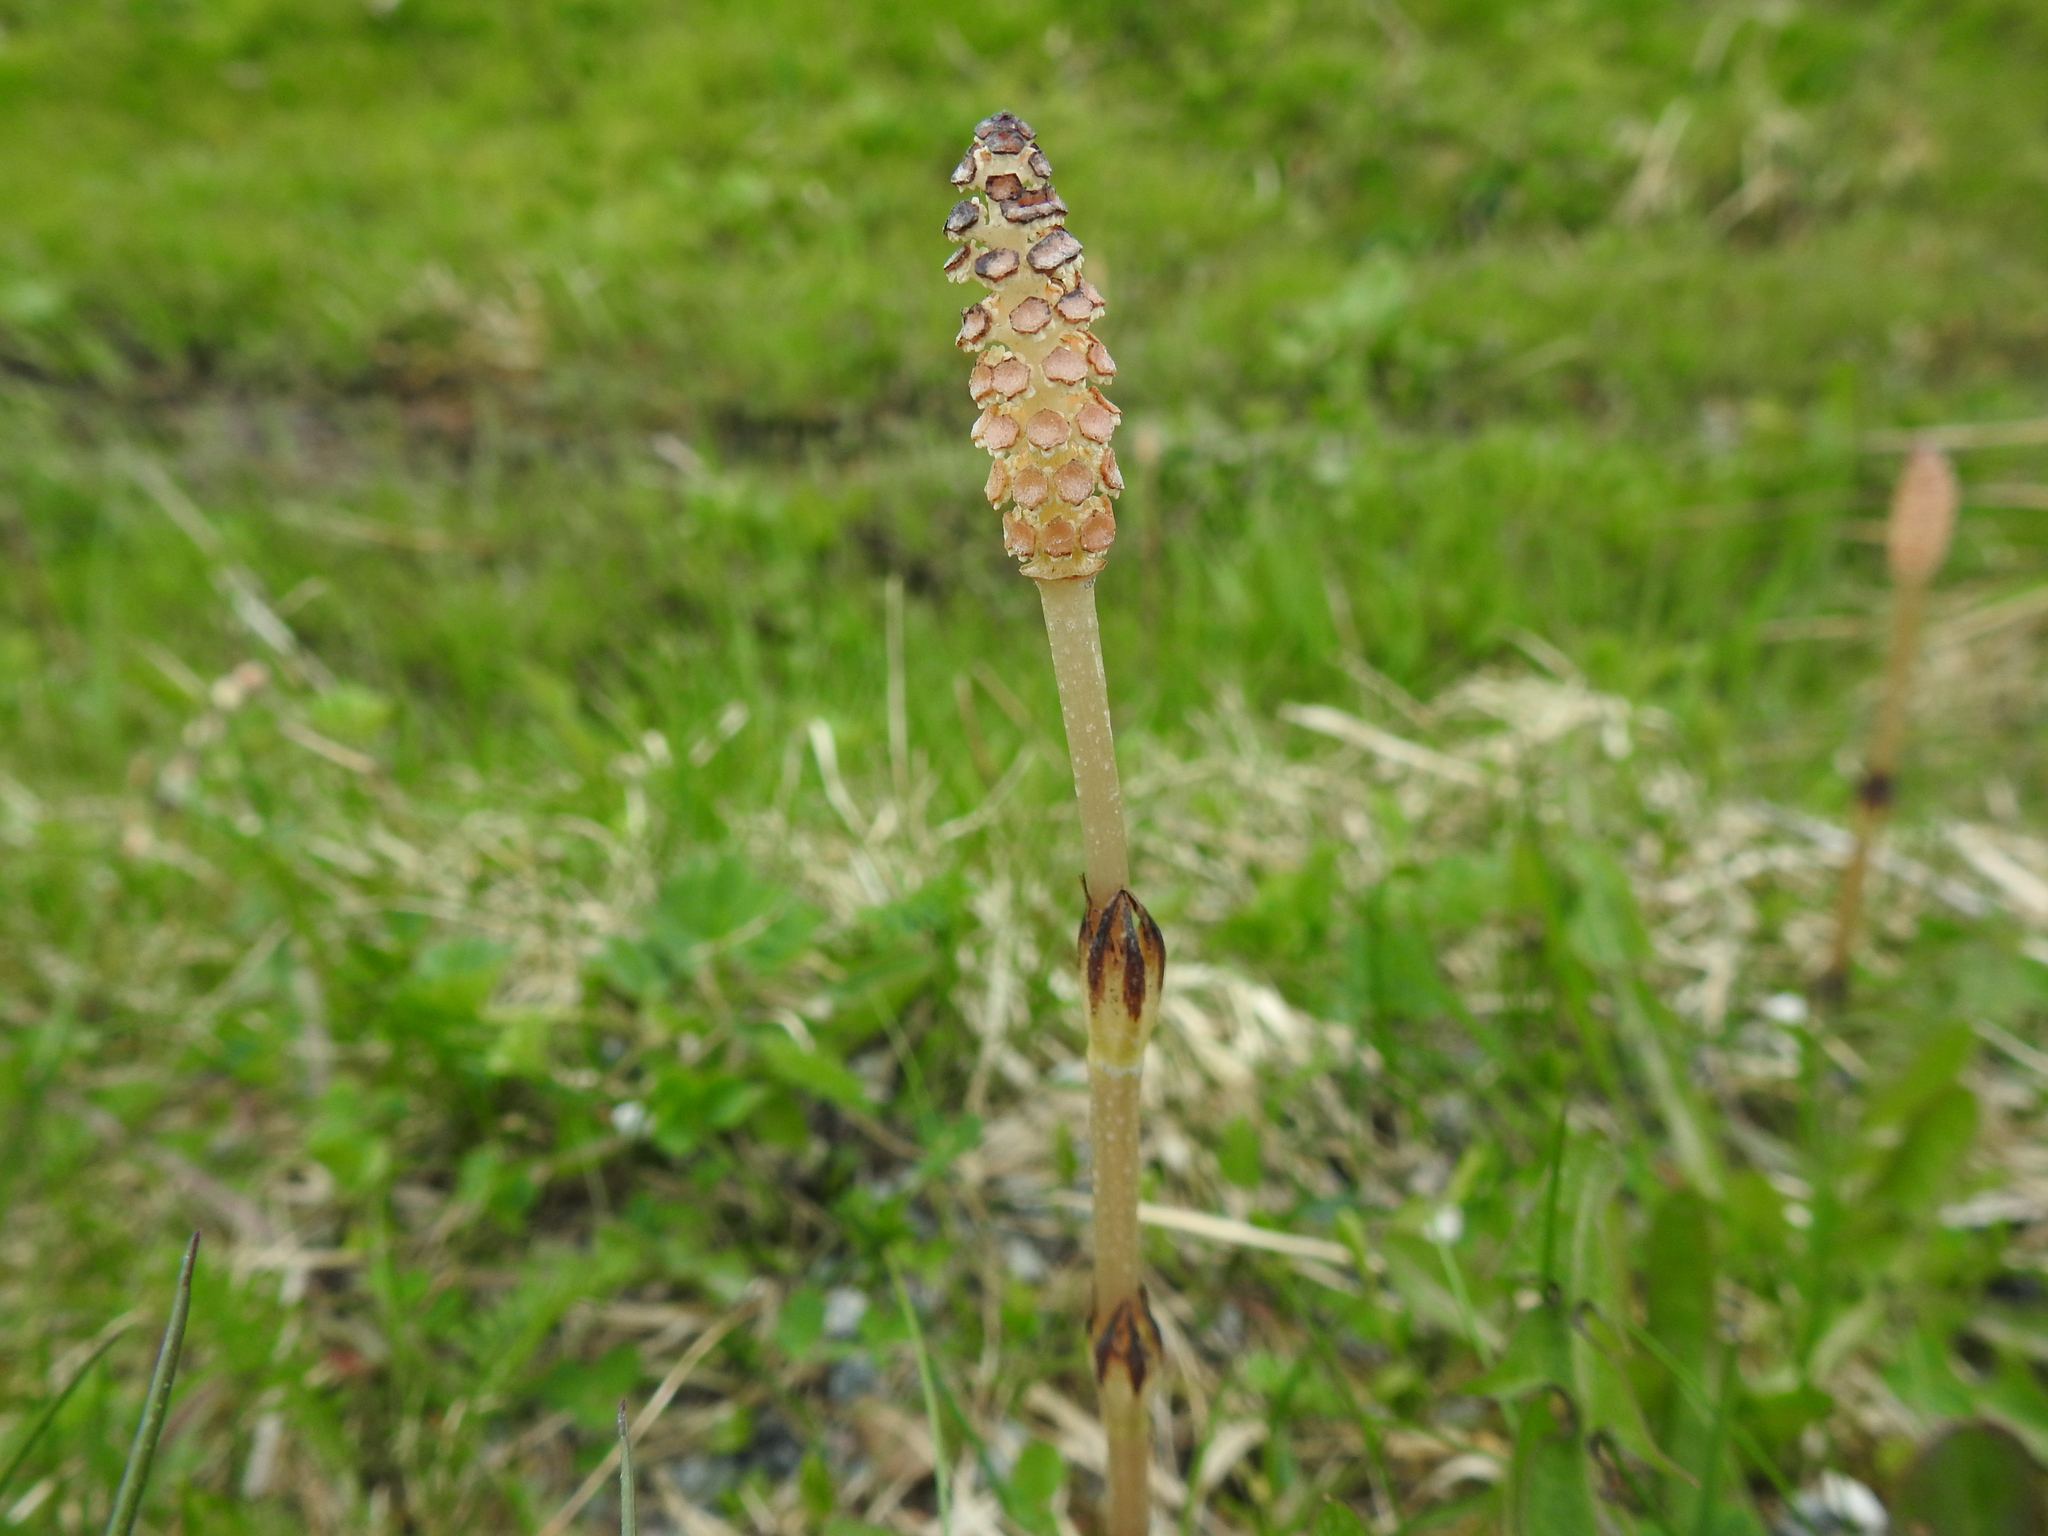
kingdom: Plantae
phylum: Tracheophyta
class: Polypodiopsida
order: Equisetales
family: Equisetaceae
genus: Equisetum
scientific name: Equisetum arvense
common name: Field horsetail
